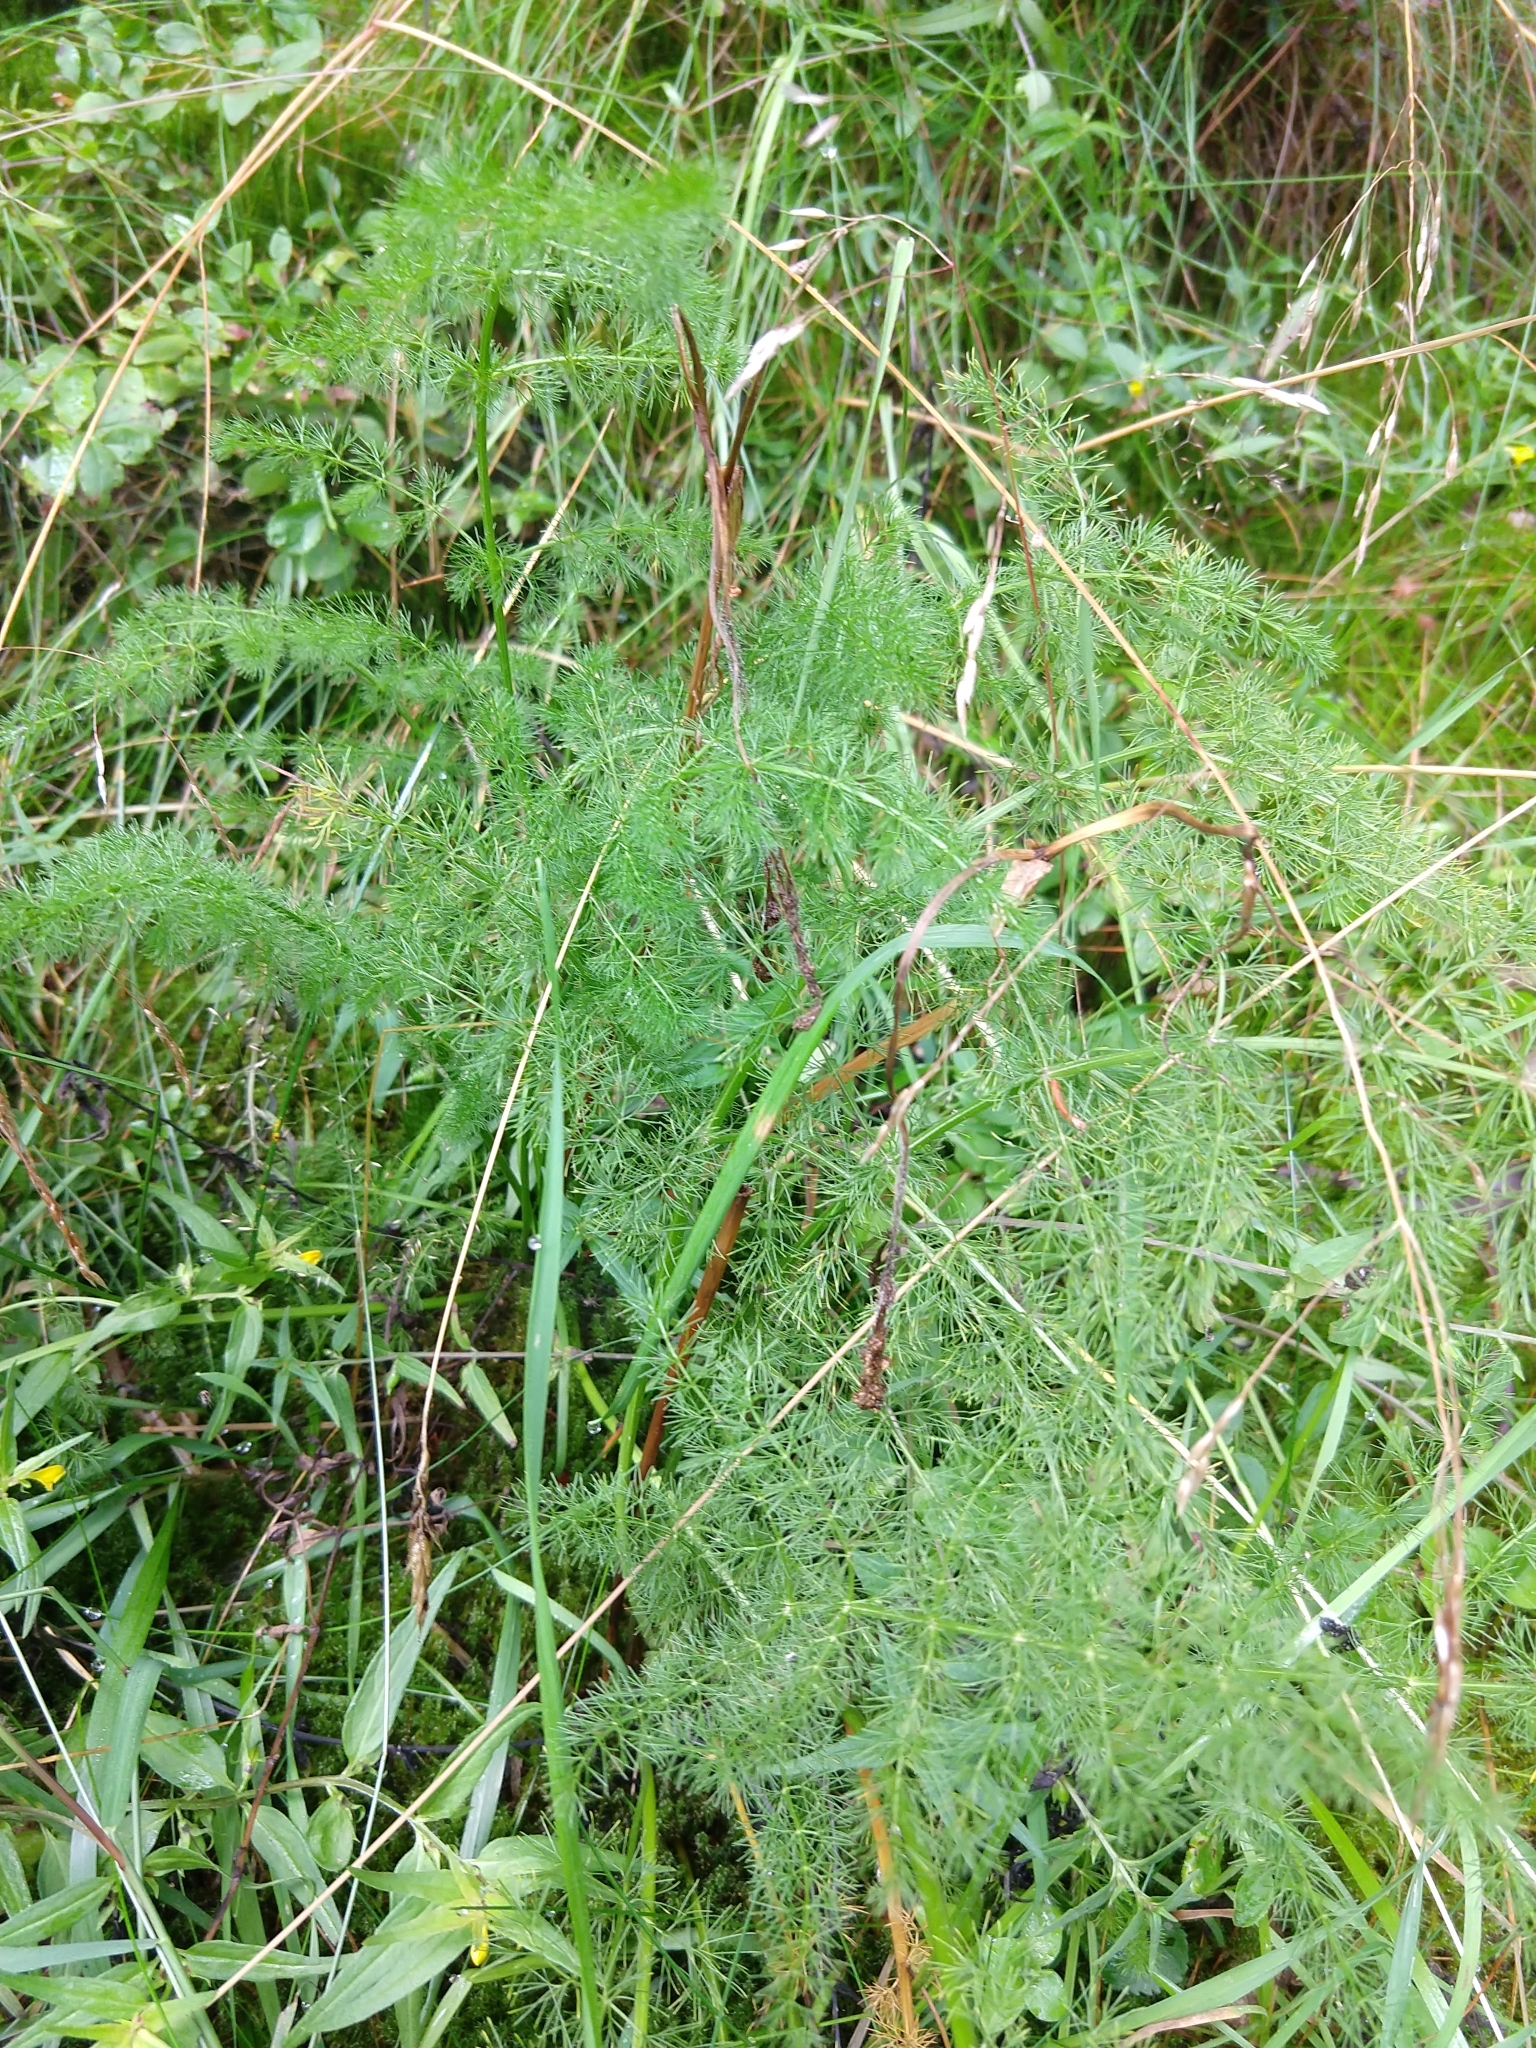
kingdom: Plantae
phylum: Tracheophyta
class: Magnoliopsida
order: Apiales
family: Apiaceae
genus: Meum
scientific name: Meum athamanticum
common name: Spignel
